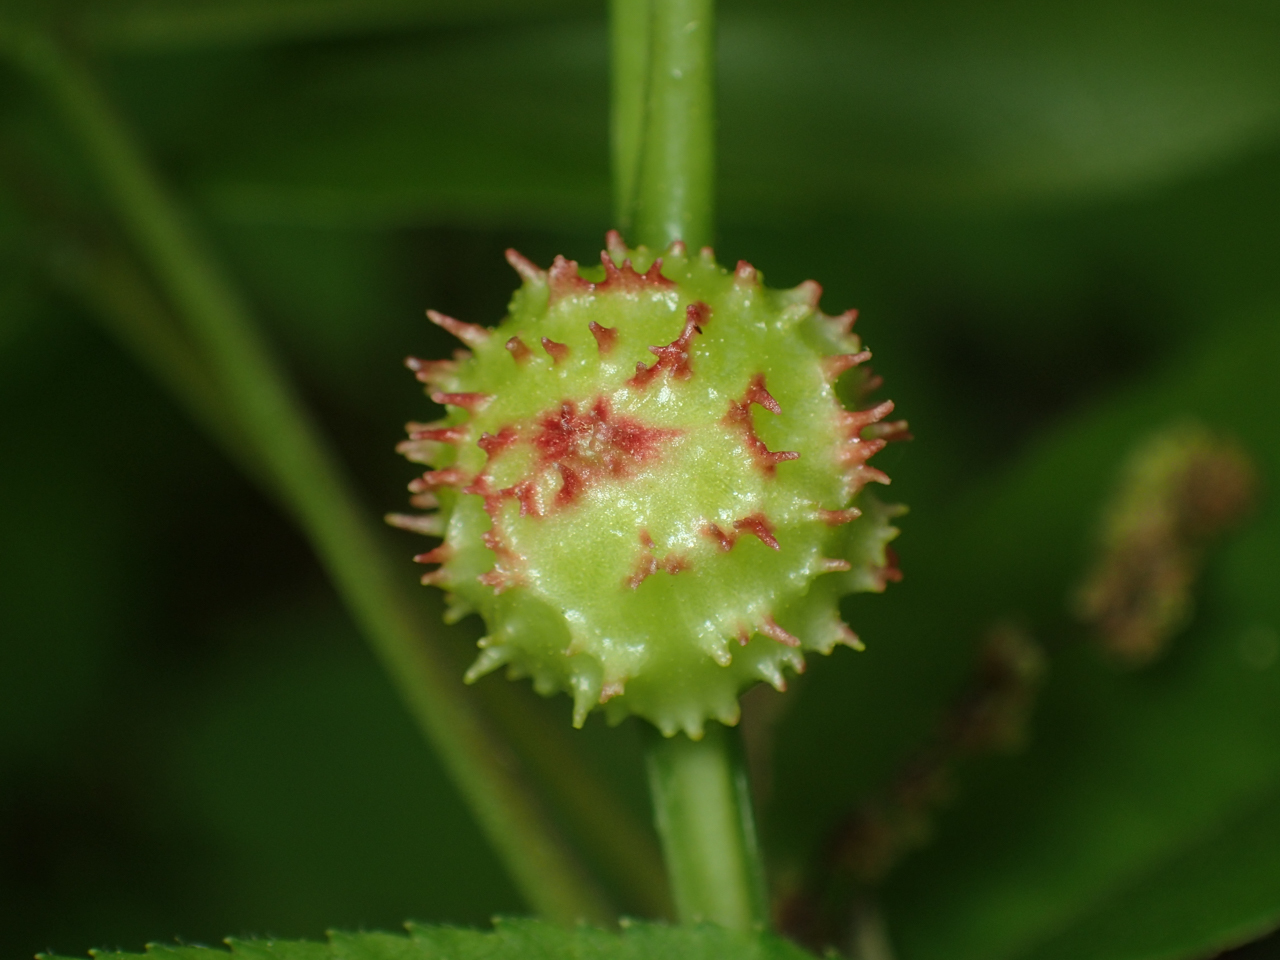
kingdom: Animalia
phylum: Arthropoda
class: Insecta
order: Hemiptera
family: Phylloxeridae
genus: Phylloxera
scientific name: Phylloxera spinosa
